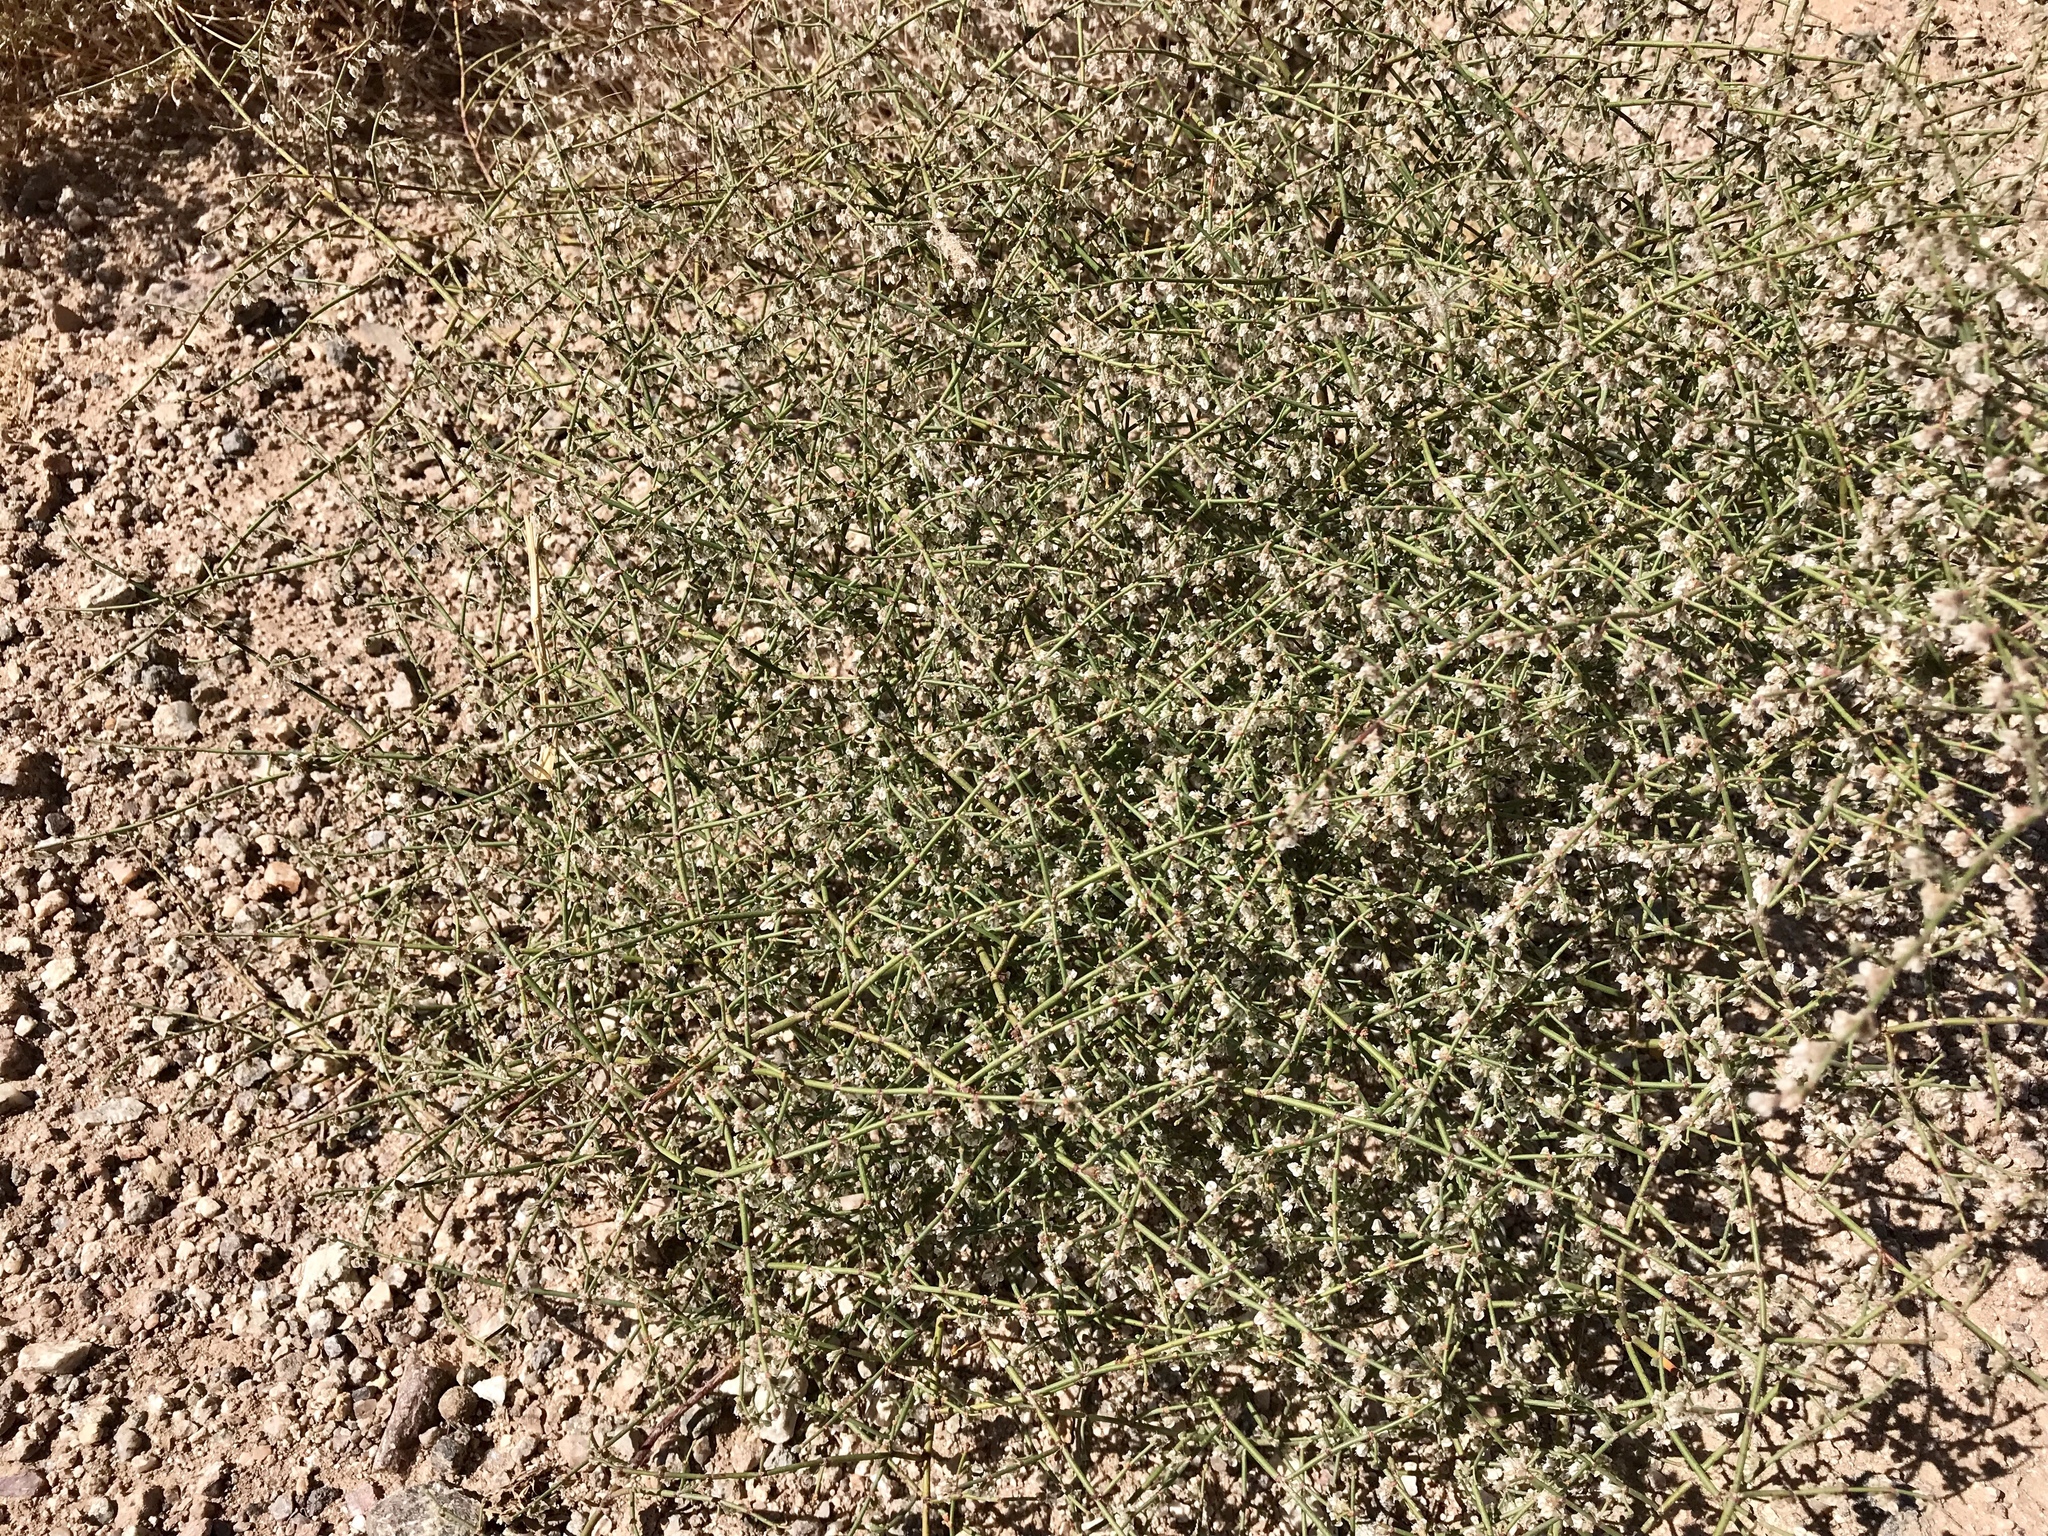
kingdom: Plantae
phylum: Tracheophyta
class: Magnoliopsida
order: Caryophyllales
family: Polygonaceae
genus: Eriogonum
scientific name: Eriogonum deflexum
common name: Skeleton-weed
